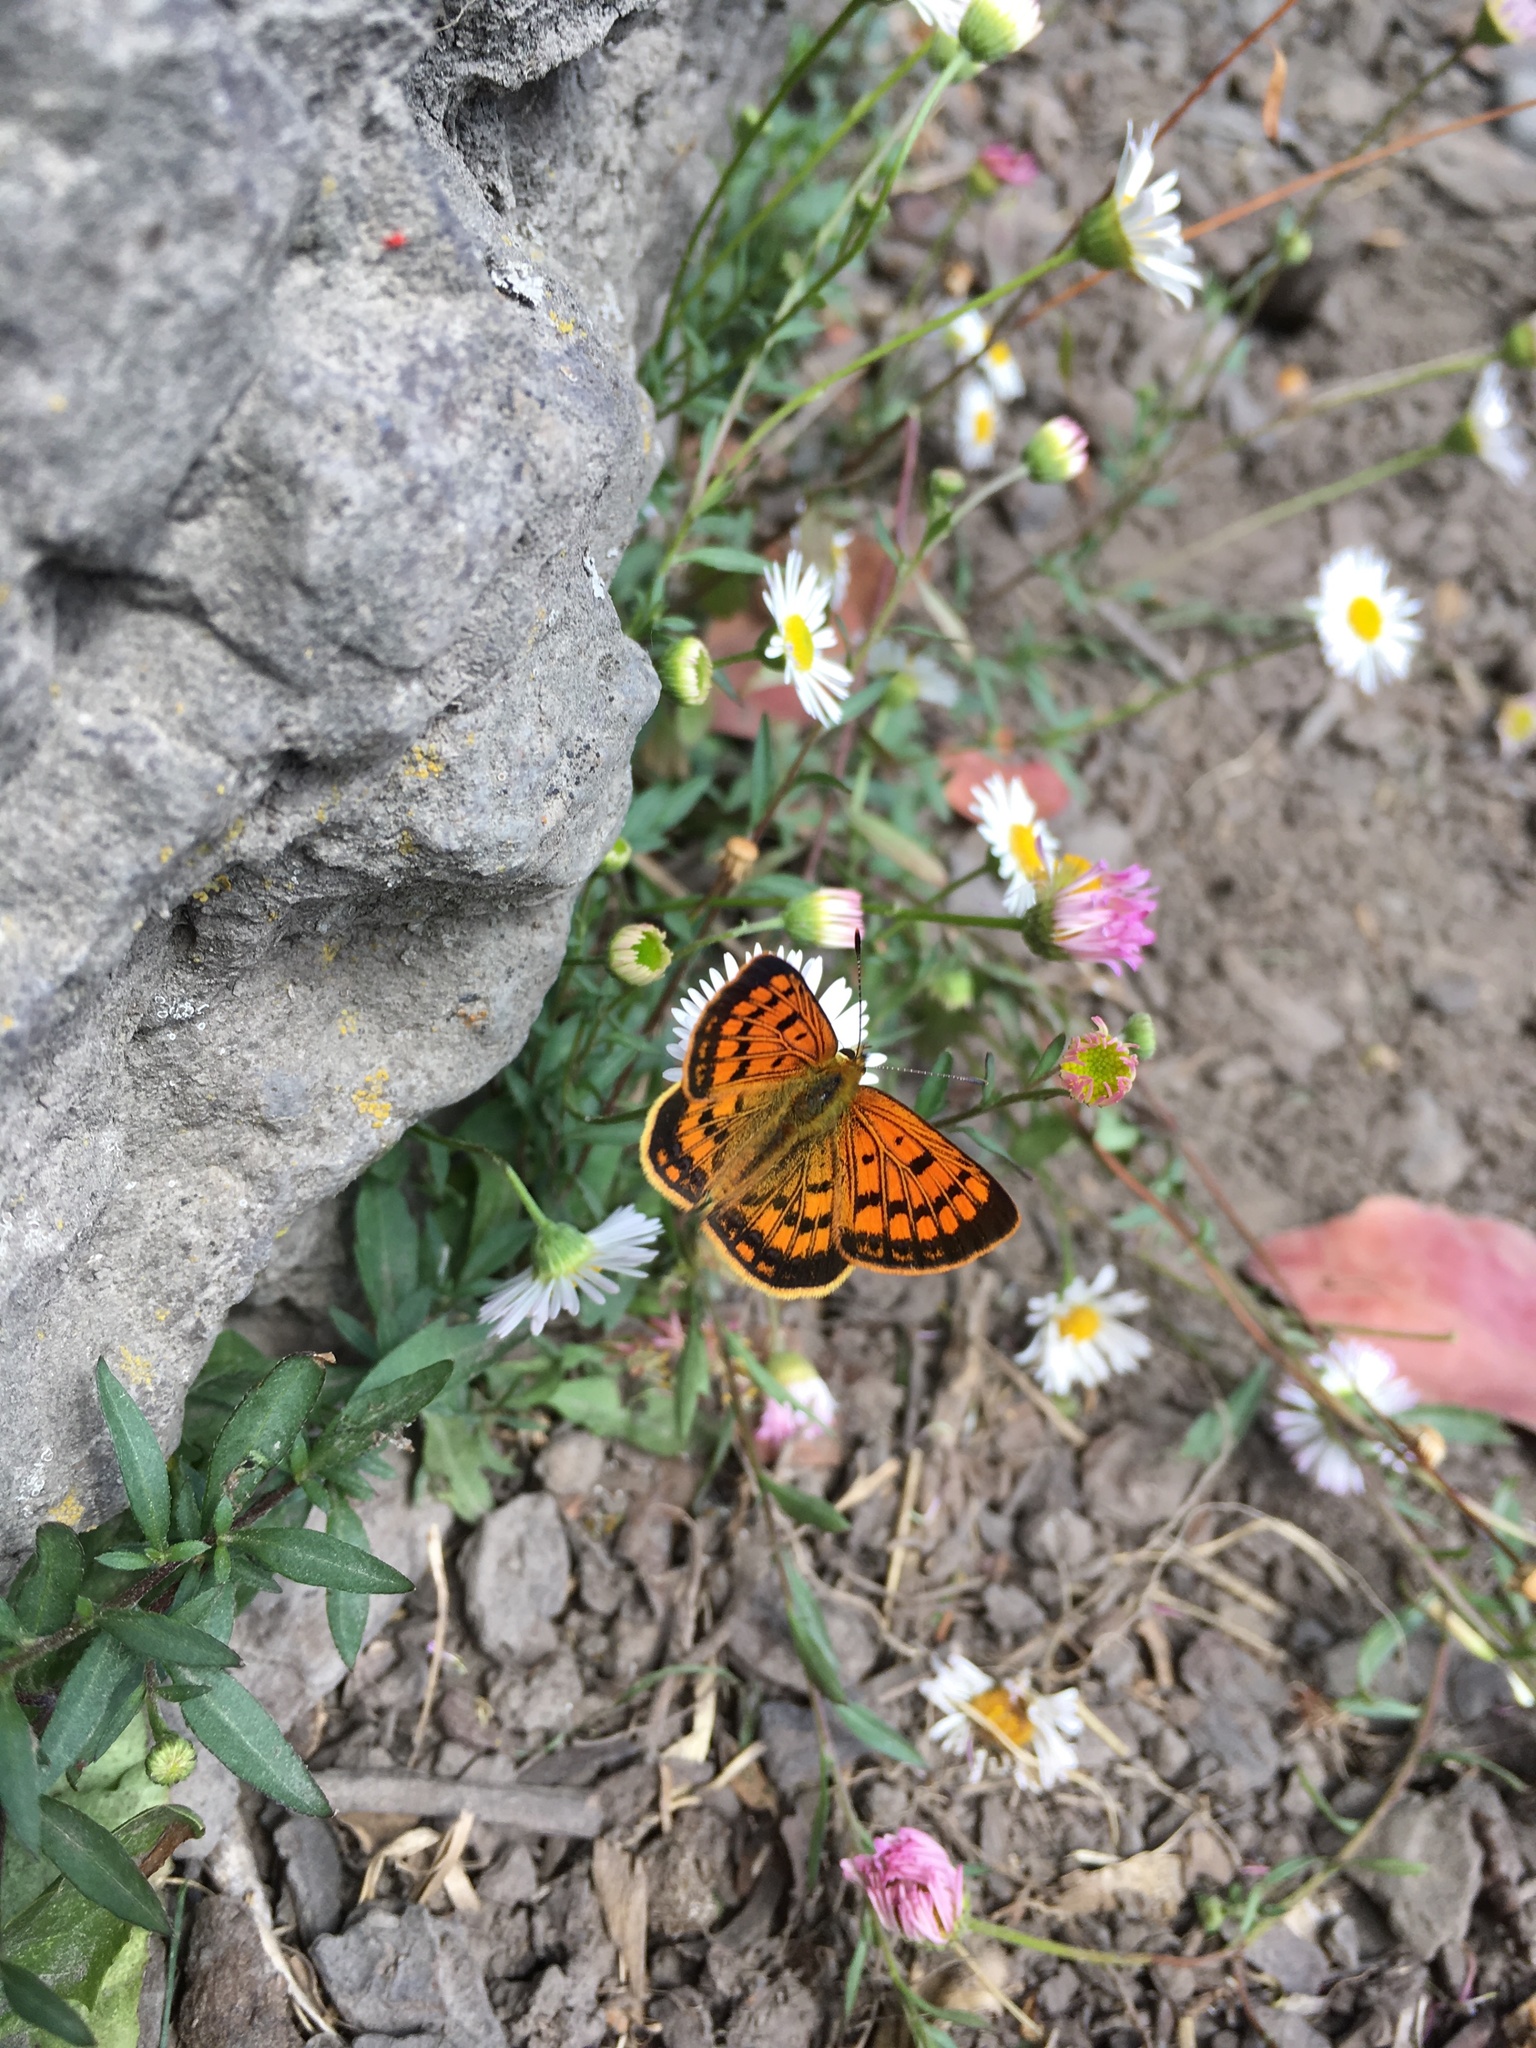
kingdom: Animalia
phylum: Arthropoda
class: Insecta
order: Lepidoptera
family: Lycaenidae
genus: Lycaena
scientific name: Lycaena
